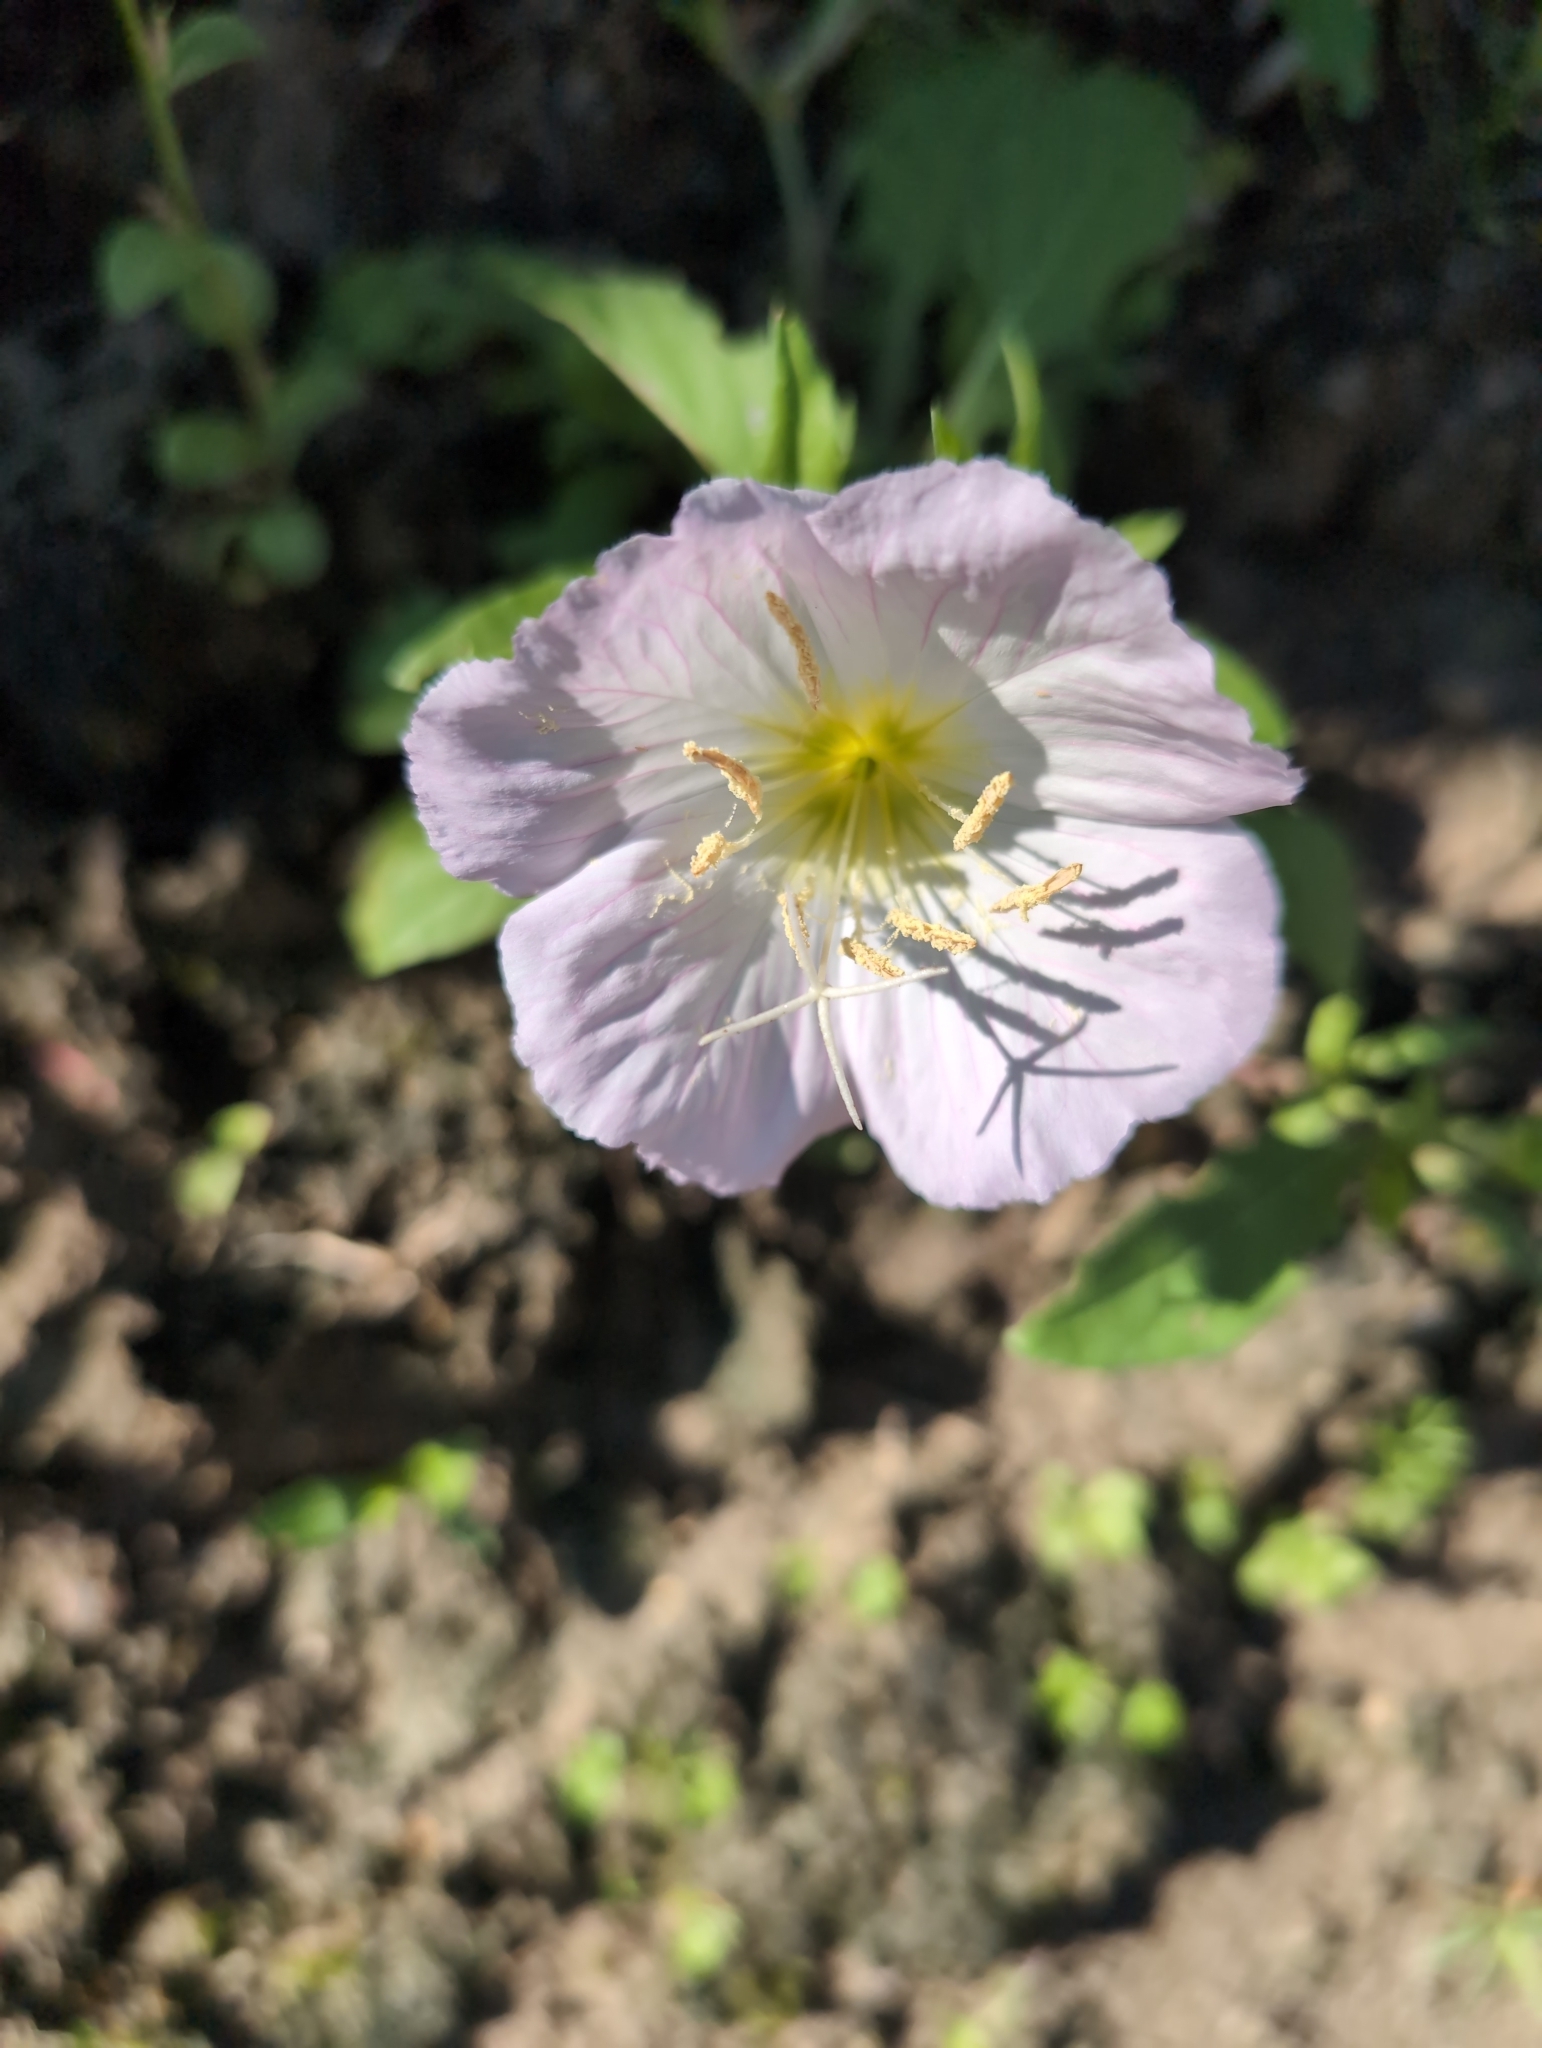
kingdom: Plantae
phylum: Tracheophyta
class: Magnoliopsida
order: Myrtales
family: Onagraceae
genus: Oenothera
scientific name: Oenothera speciosa
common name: White evening-primrose
